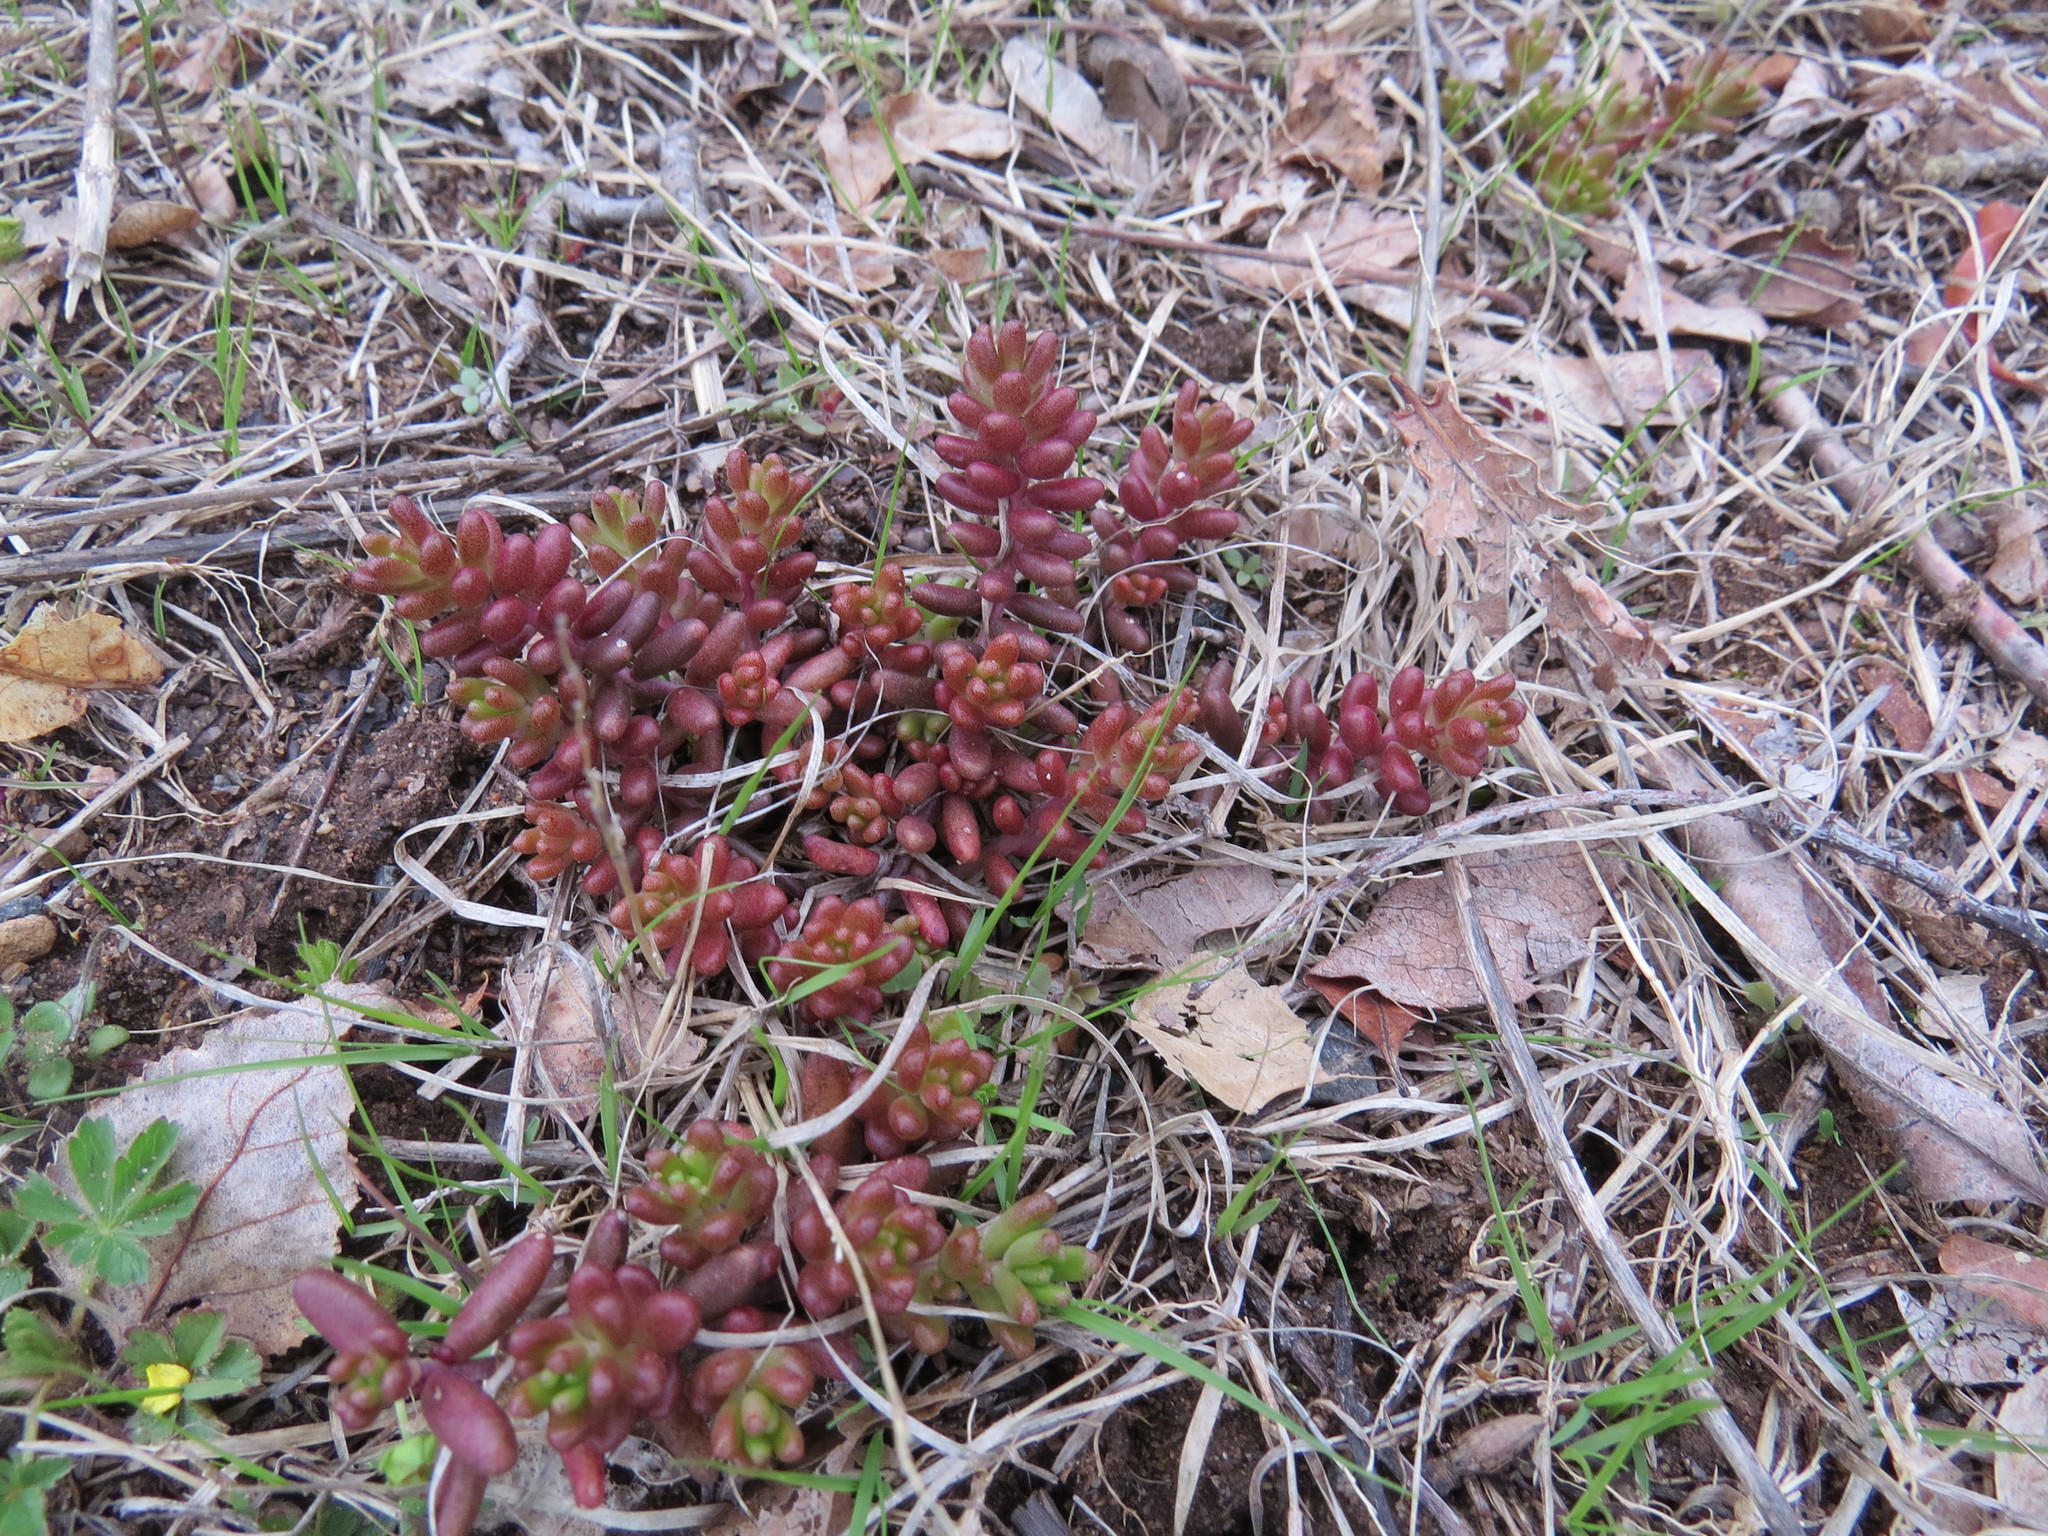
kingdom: Plantae
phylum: Tracheophyta
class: Magnoliopsida
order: Saxifragales
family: Crassulaceae
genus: Sedum
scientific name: Sedum album
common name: White stonecrop
